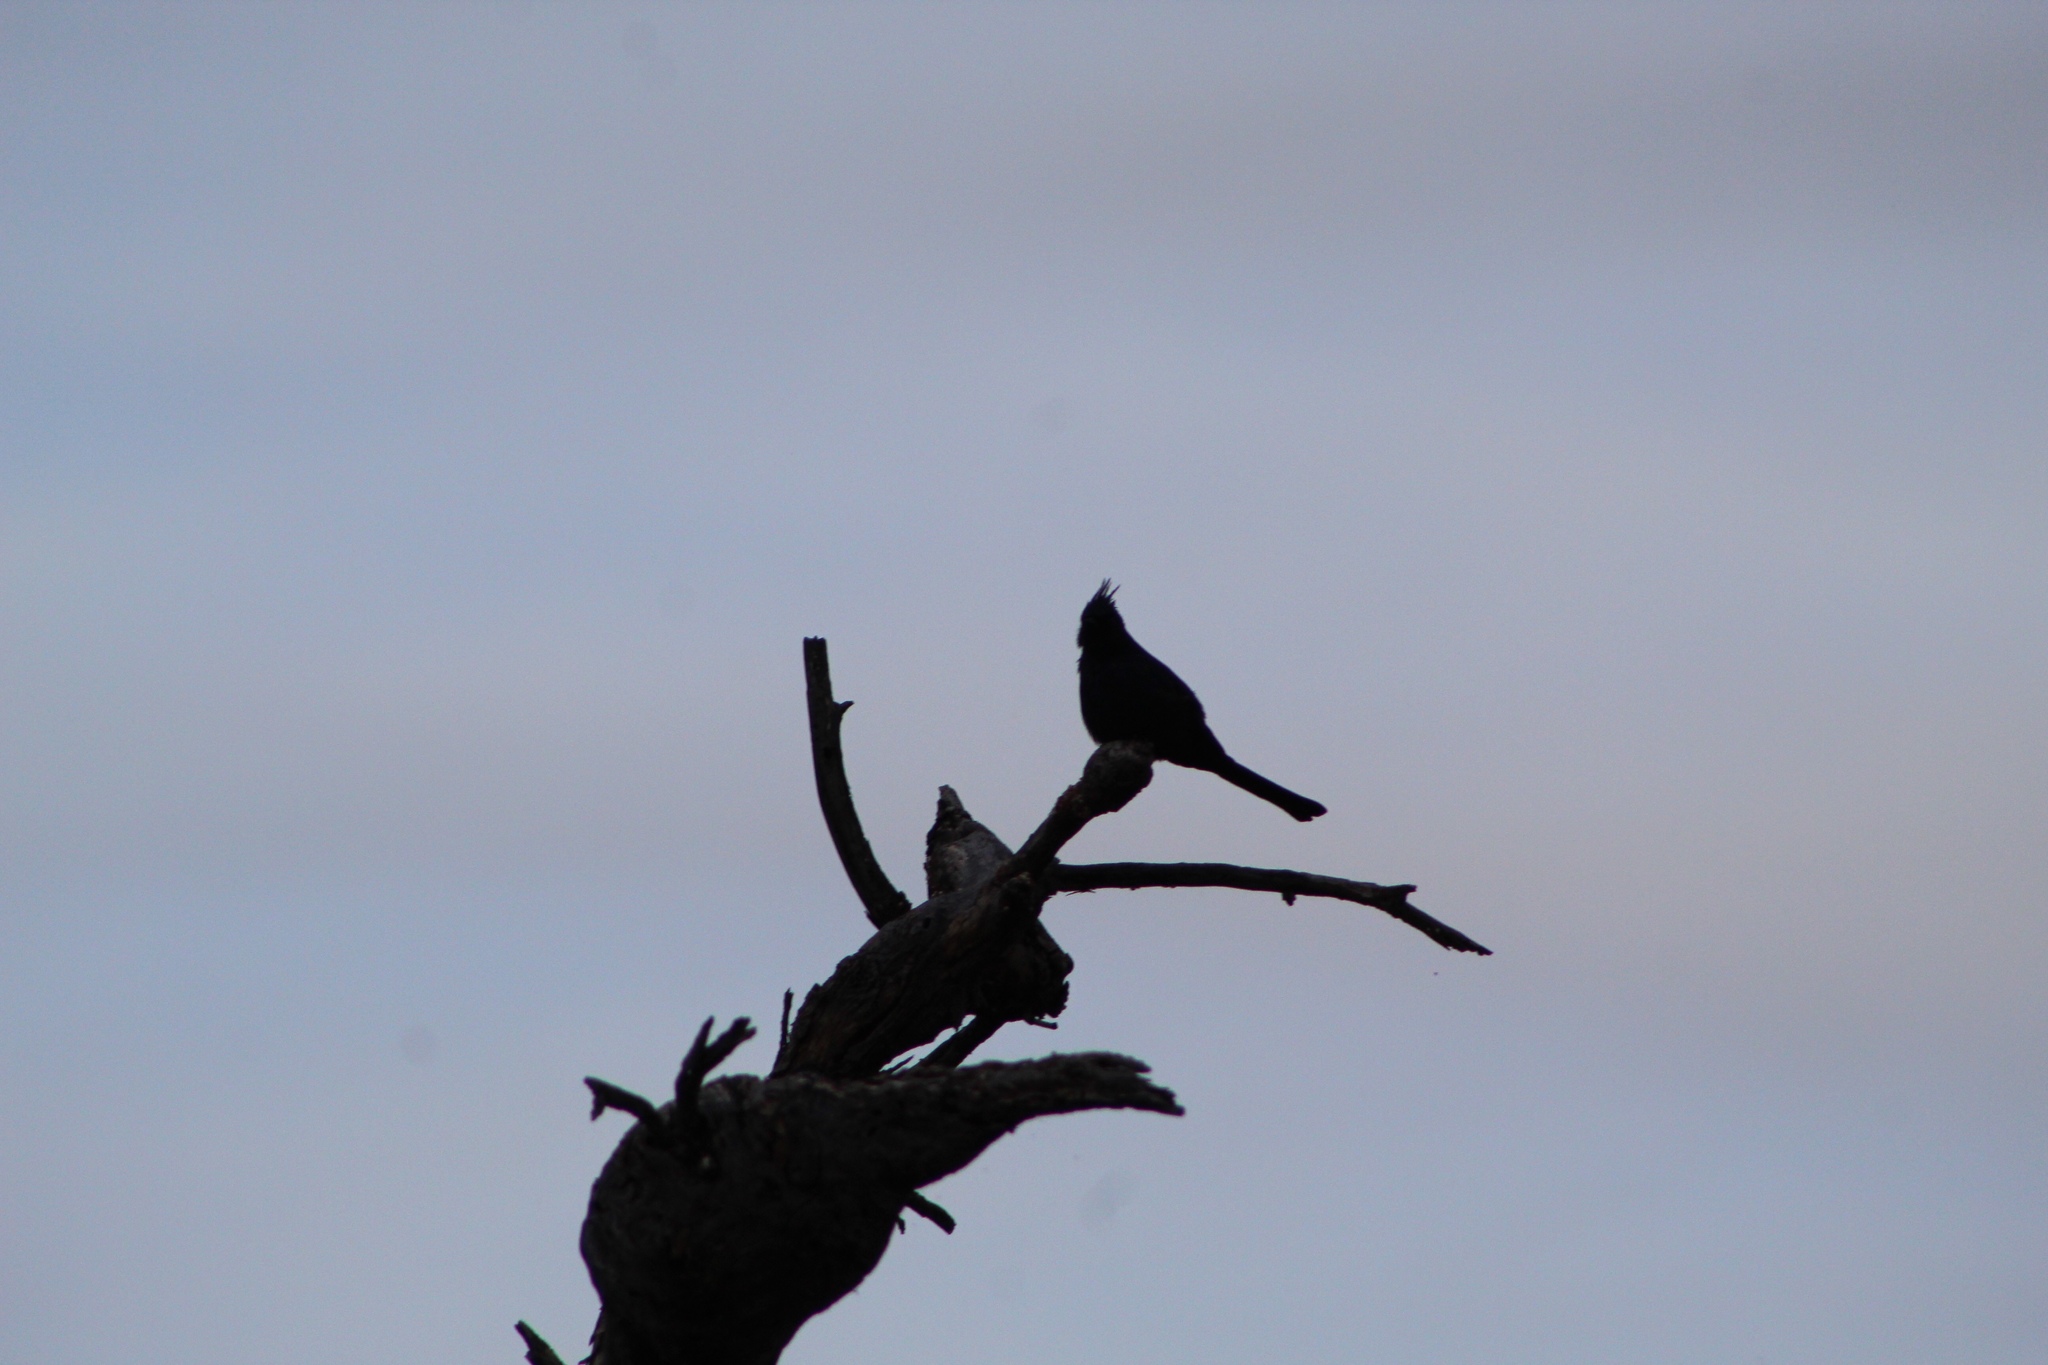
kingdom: Animalia
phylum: Chordata
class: Aves
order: Passeriformes
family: Ptilogonatidae
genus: Phainopepla
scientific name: Phainopepla nitens
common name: Phainopepla
